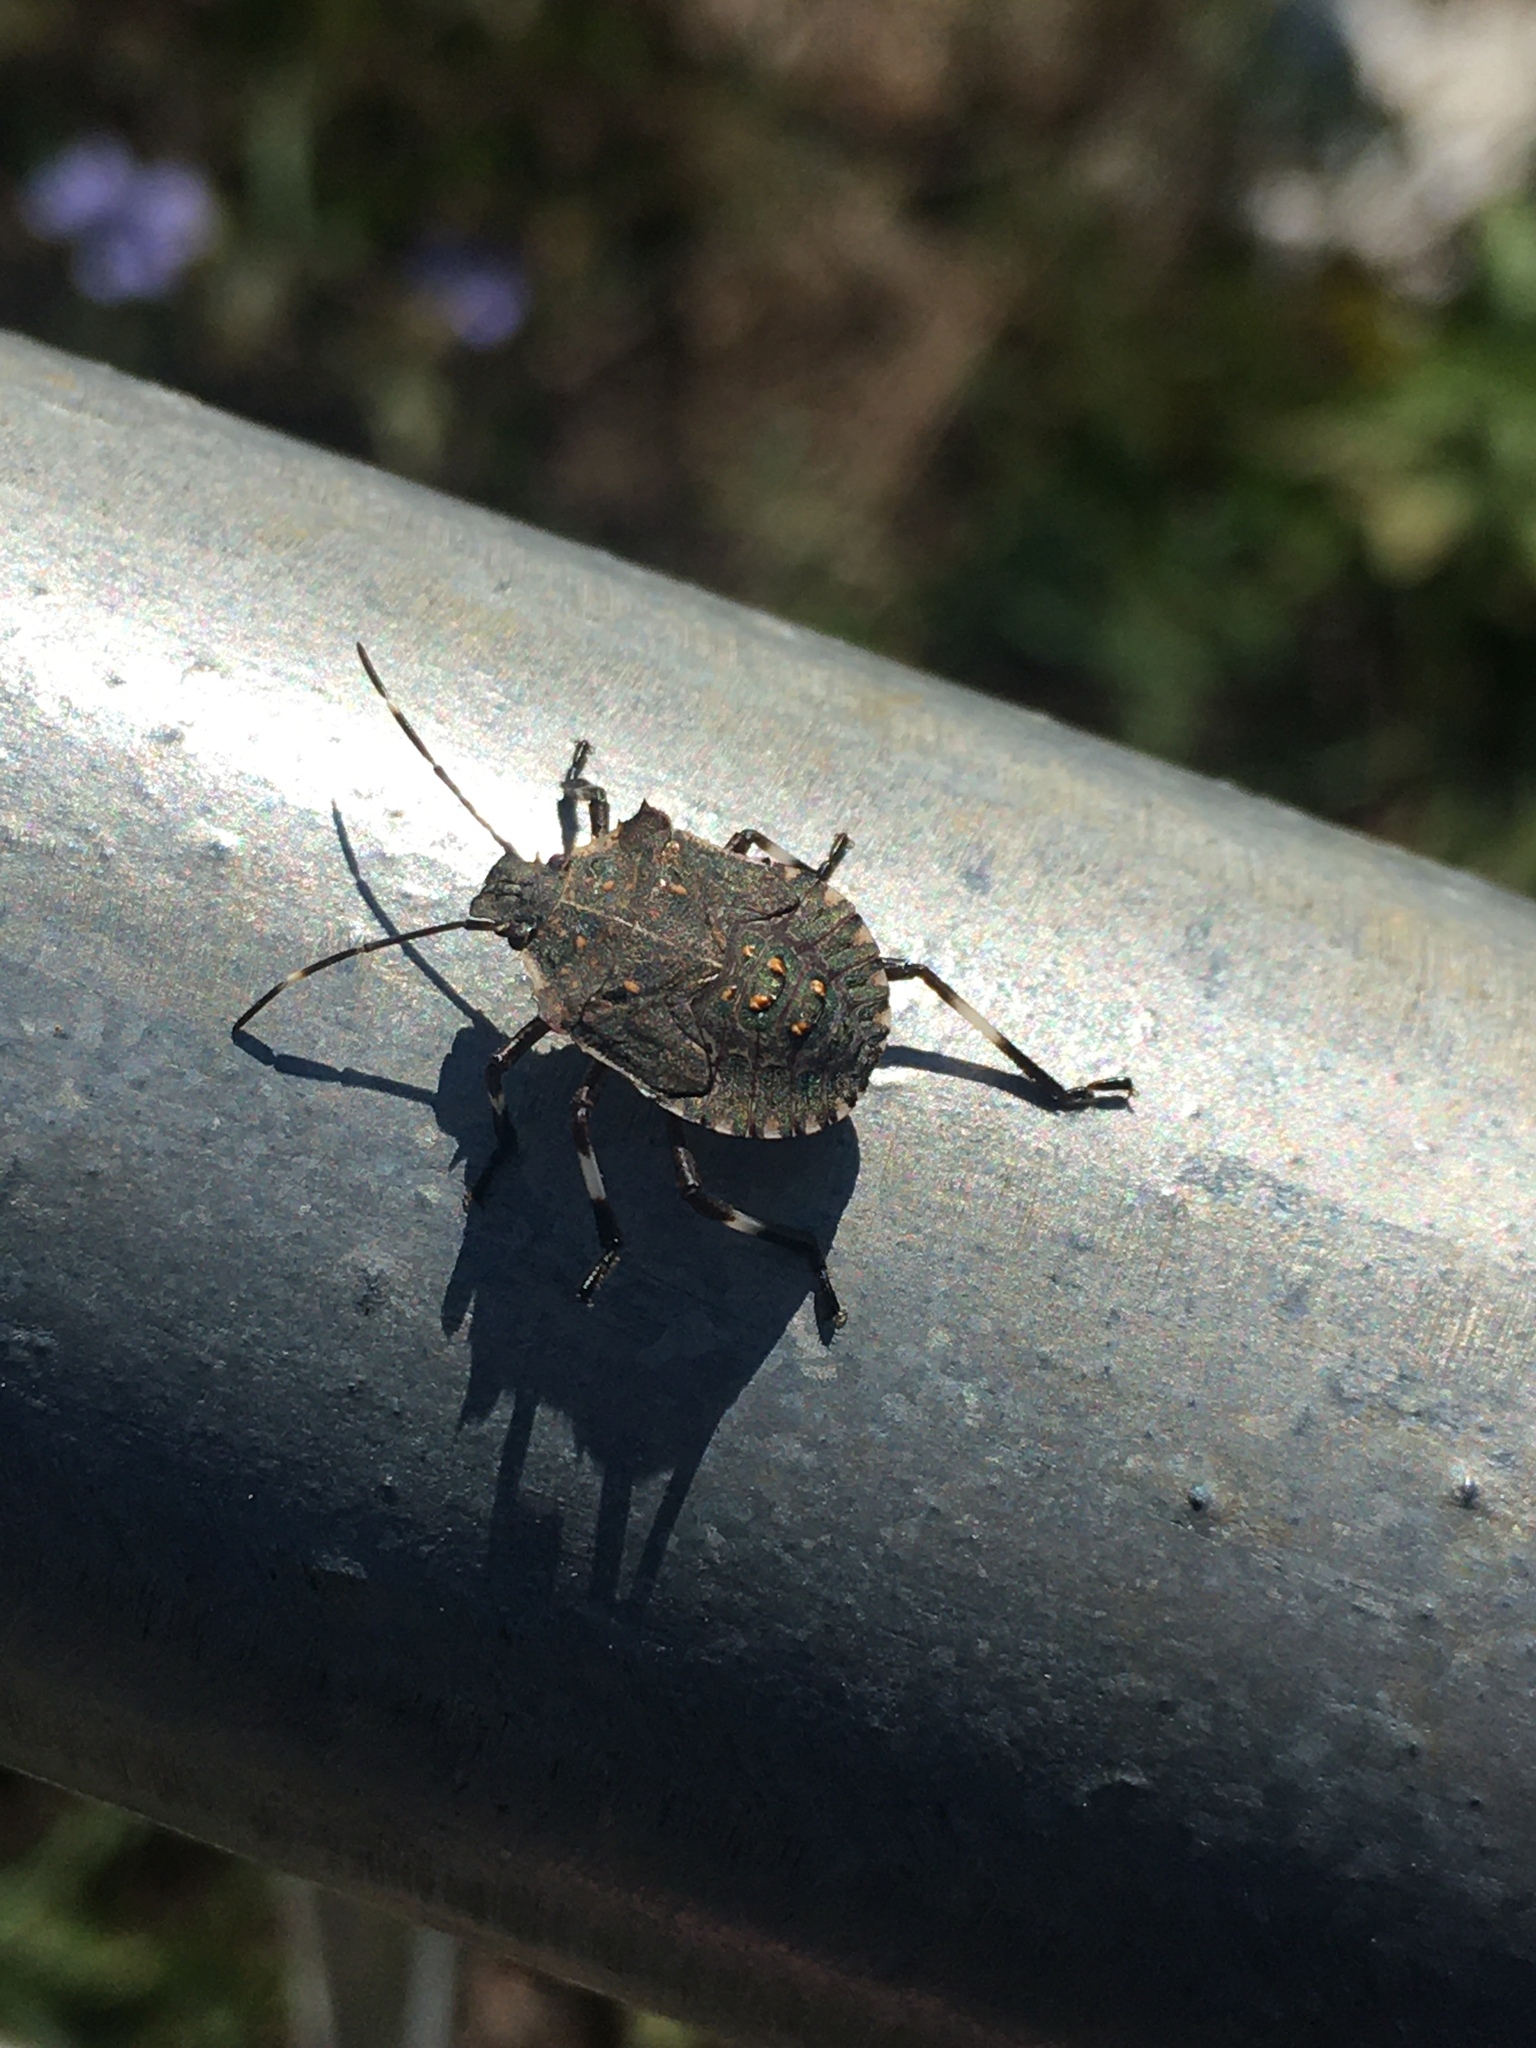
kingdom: Animalia
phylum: Arthropoda
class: Insecta
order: Hemiptera
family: Pentatomidae
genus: Halyomorpha
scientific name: Halyomorpha halys
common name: Brown marmorated stink bug
